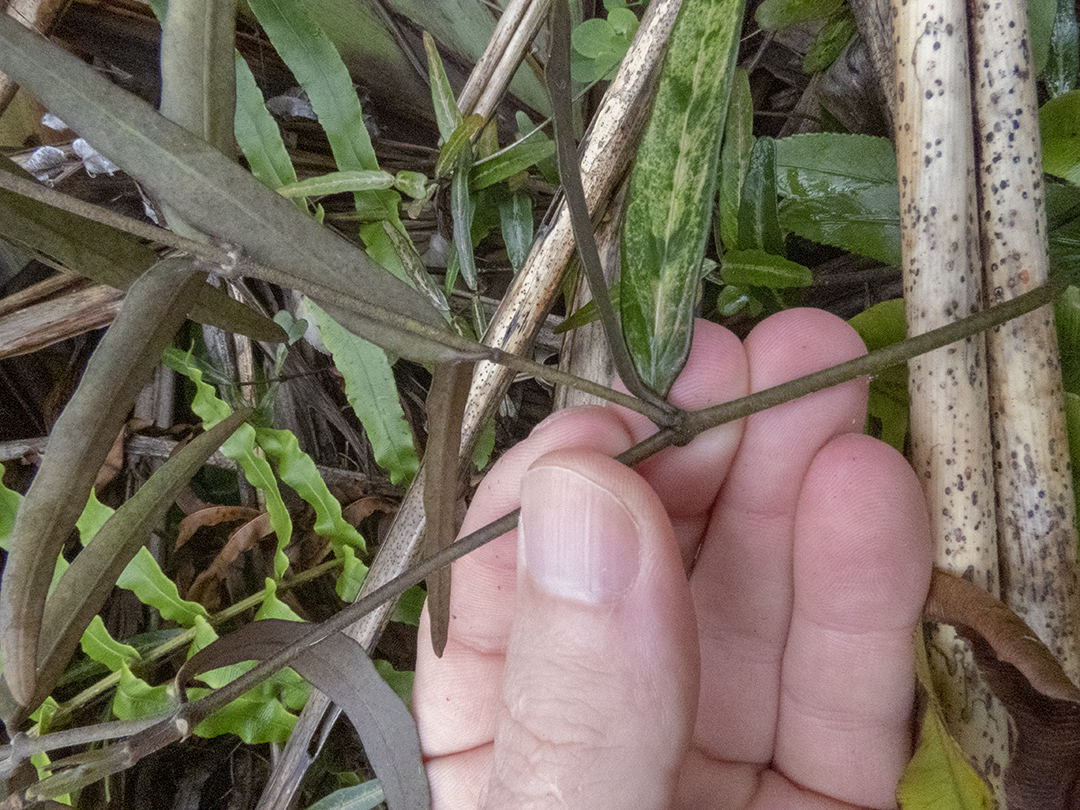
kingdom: Plantae
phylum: Tracheophyta
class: Magnoliopsida
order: Gentianales
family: Apocynaceae
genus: Parsonsia
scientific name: Parsonsia heterophylla
